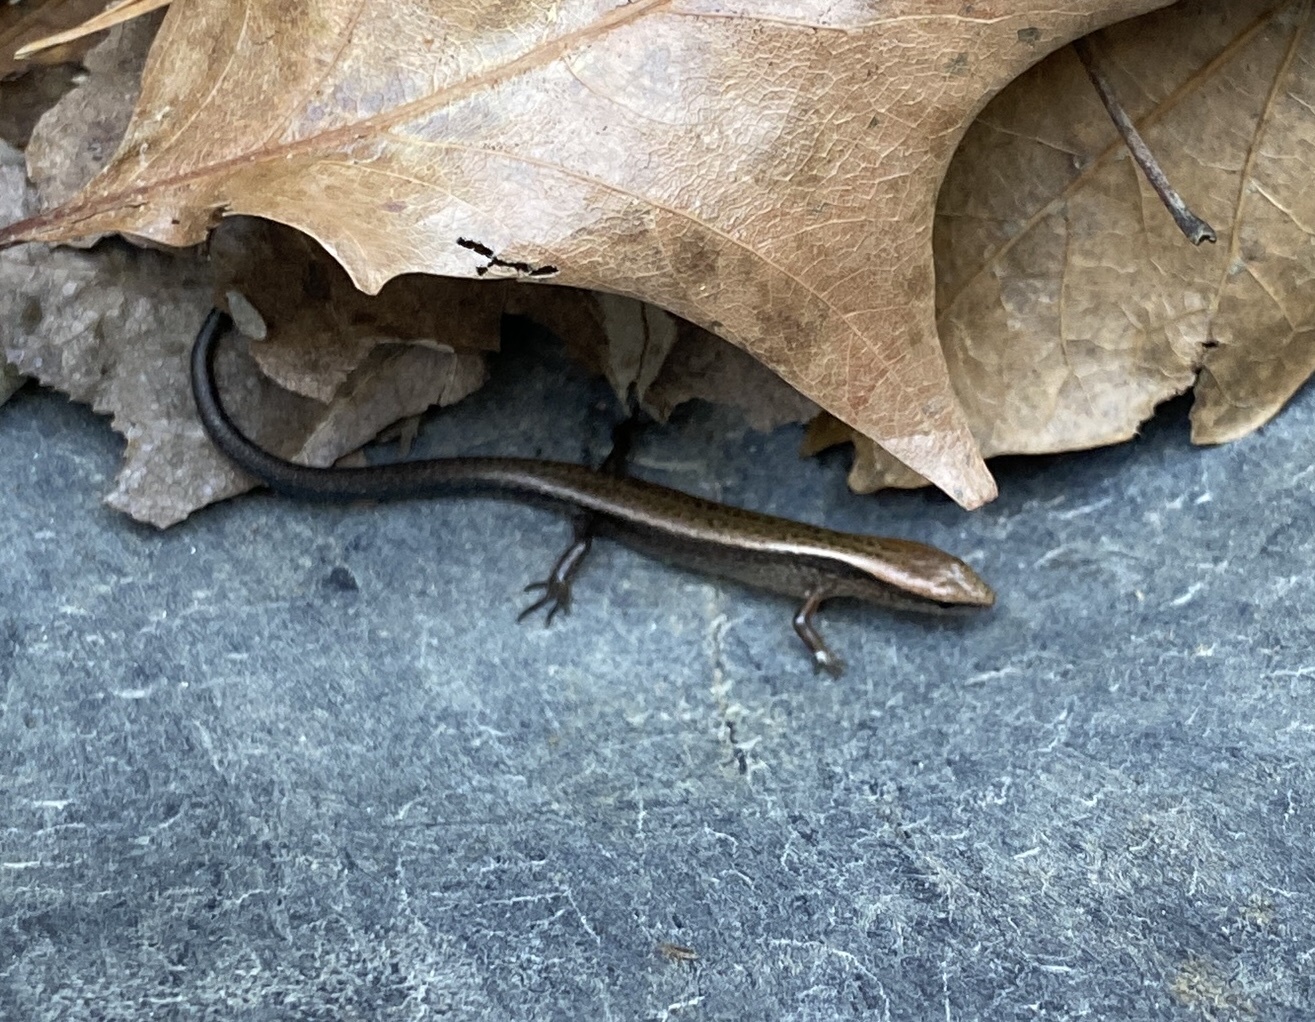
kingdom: Animalia
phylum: Chordata
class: Squamata
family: Scincidae
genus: Scincella
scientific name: Scincella lateralis
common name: Ground skink
